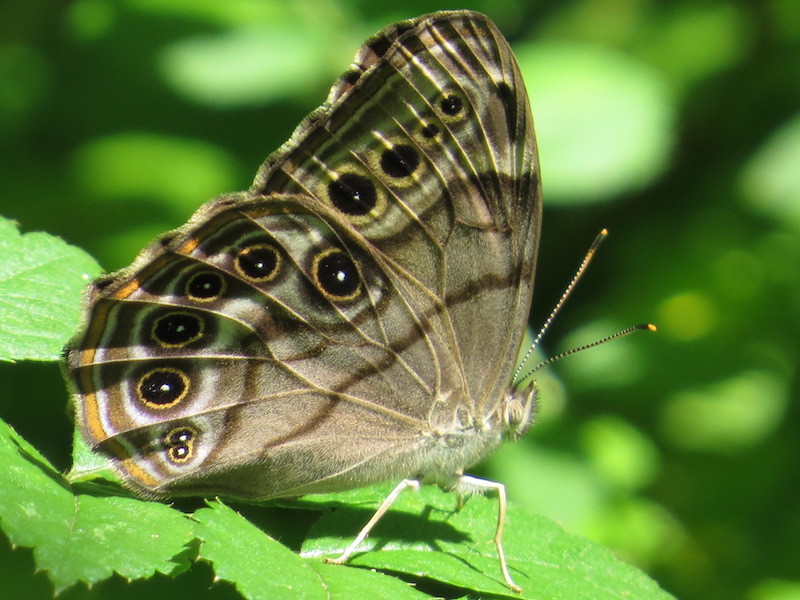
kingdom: Animalia
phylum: Arthropoda
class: Insecta
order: Lepidoptera
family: Nymphalidae
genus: Lethe
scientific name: Lethe anthedon
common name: Northern pearly-eye
